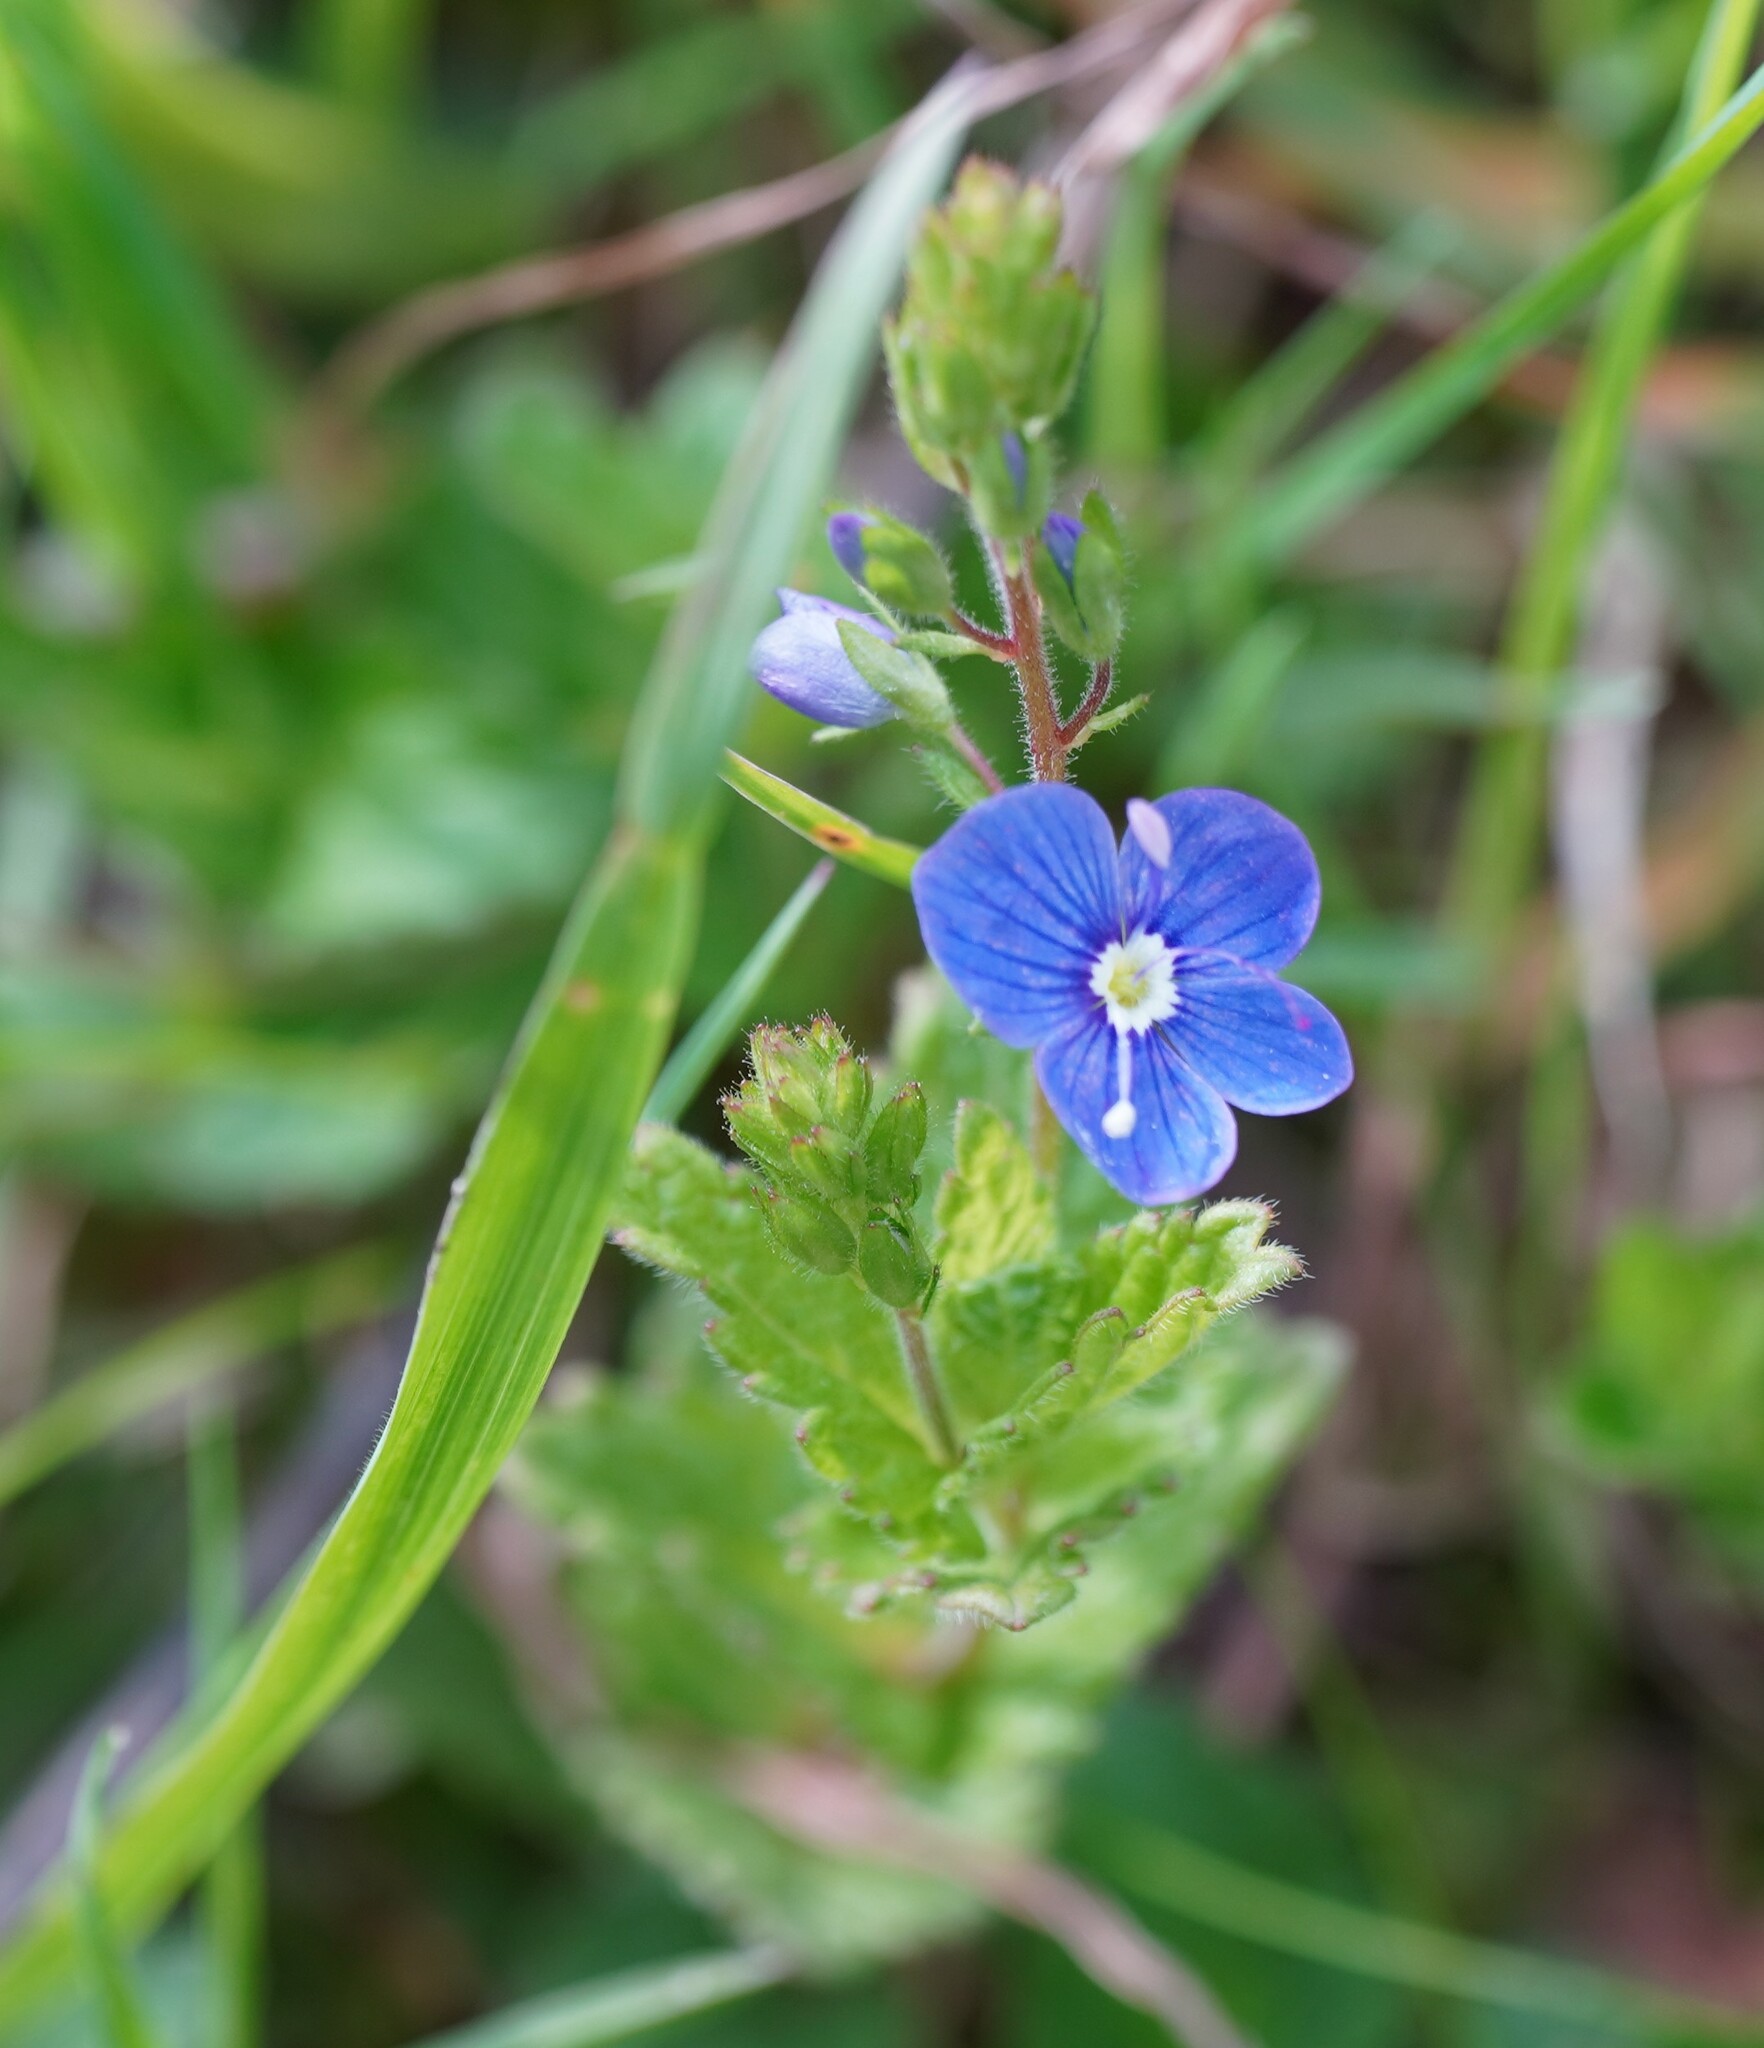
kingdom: Plantae
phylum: Tracheophyta
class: Magnoliopsida
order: Lamiales
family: Plantaginaceae
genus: Veronica
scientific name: Veronica chamaedrys
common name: Germander speedwell
